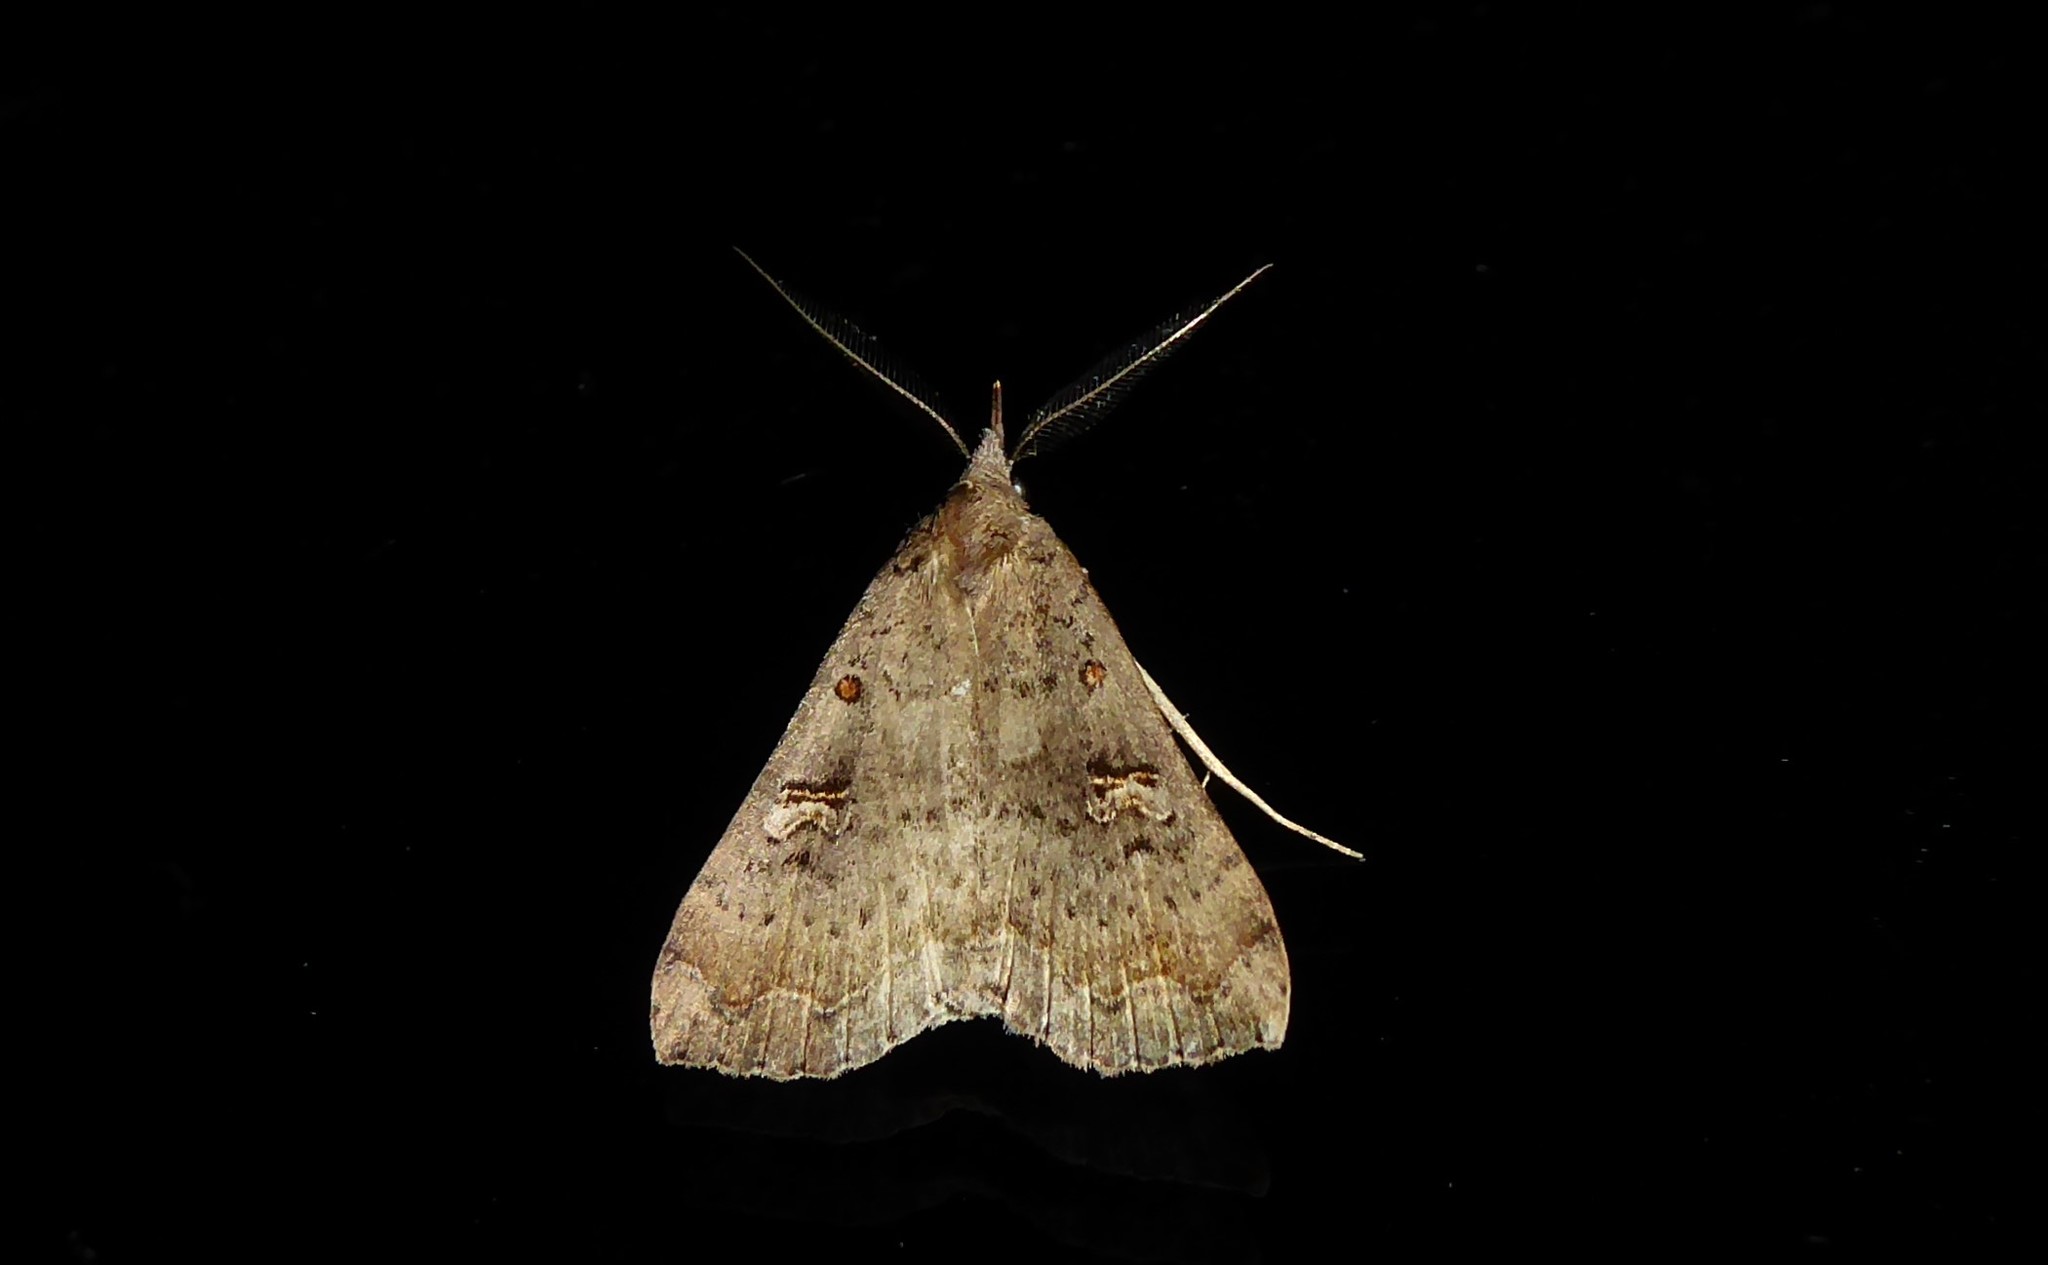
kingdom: Animalia
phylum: Arthropoda
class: Insecta
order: Lepidoptera
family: Erebidae
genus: Rhapsa
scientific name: Rhapsa scotosialis
